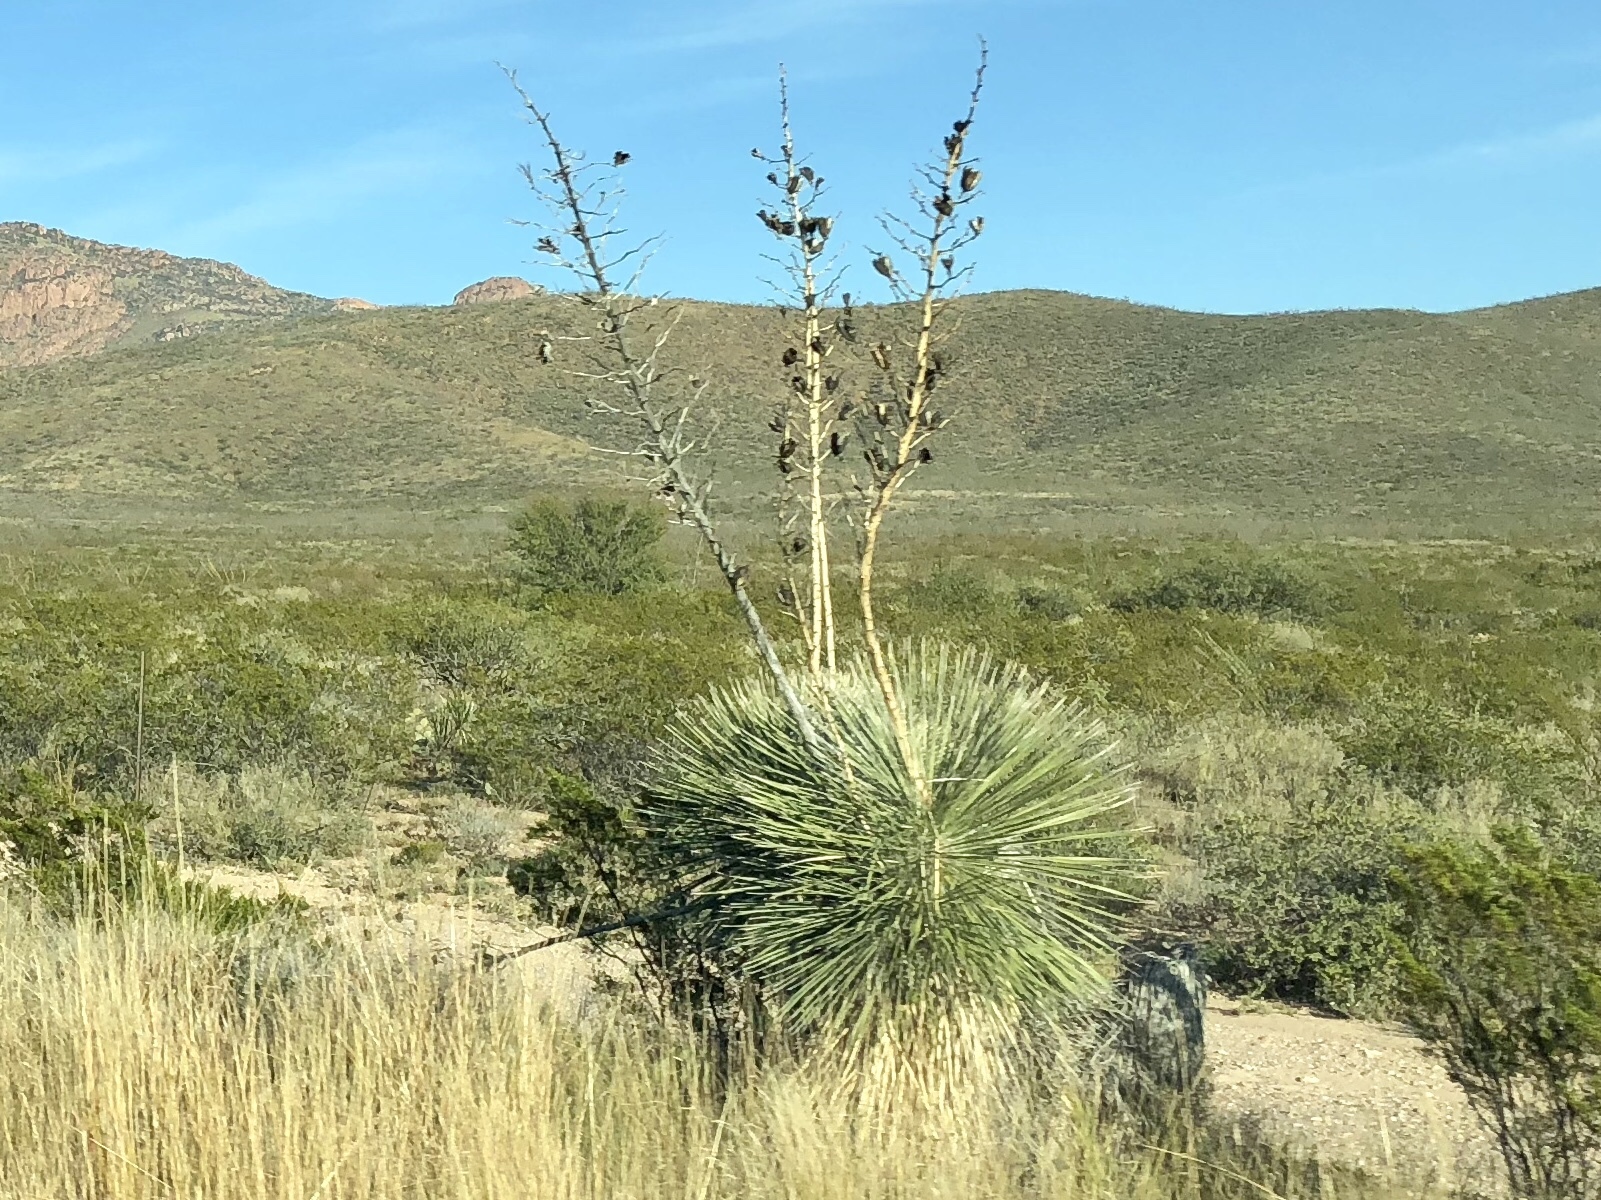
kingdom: Plantae
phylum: Tracheophyta
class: Liliopsida
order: Asparagales
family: Asparagaceae
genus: Yucca
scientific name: Yucca elata
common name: Palmella
